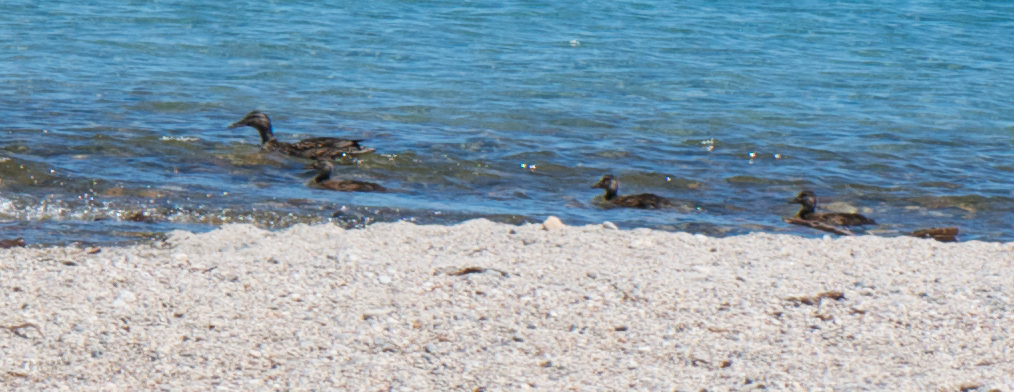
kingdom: Animalia
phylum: Chordata
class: Aves
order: Anseriformes
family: Anatidae
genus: Anas
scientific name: Anas platyrhynchos
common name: Mallard
